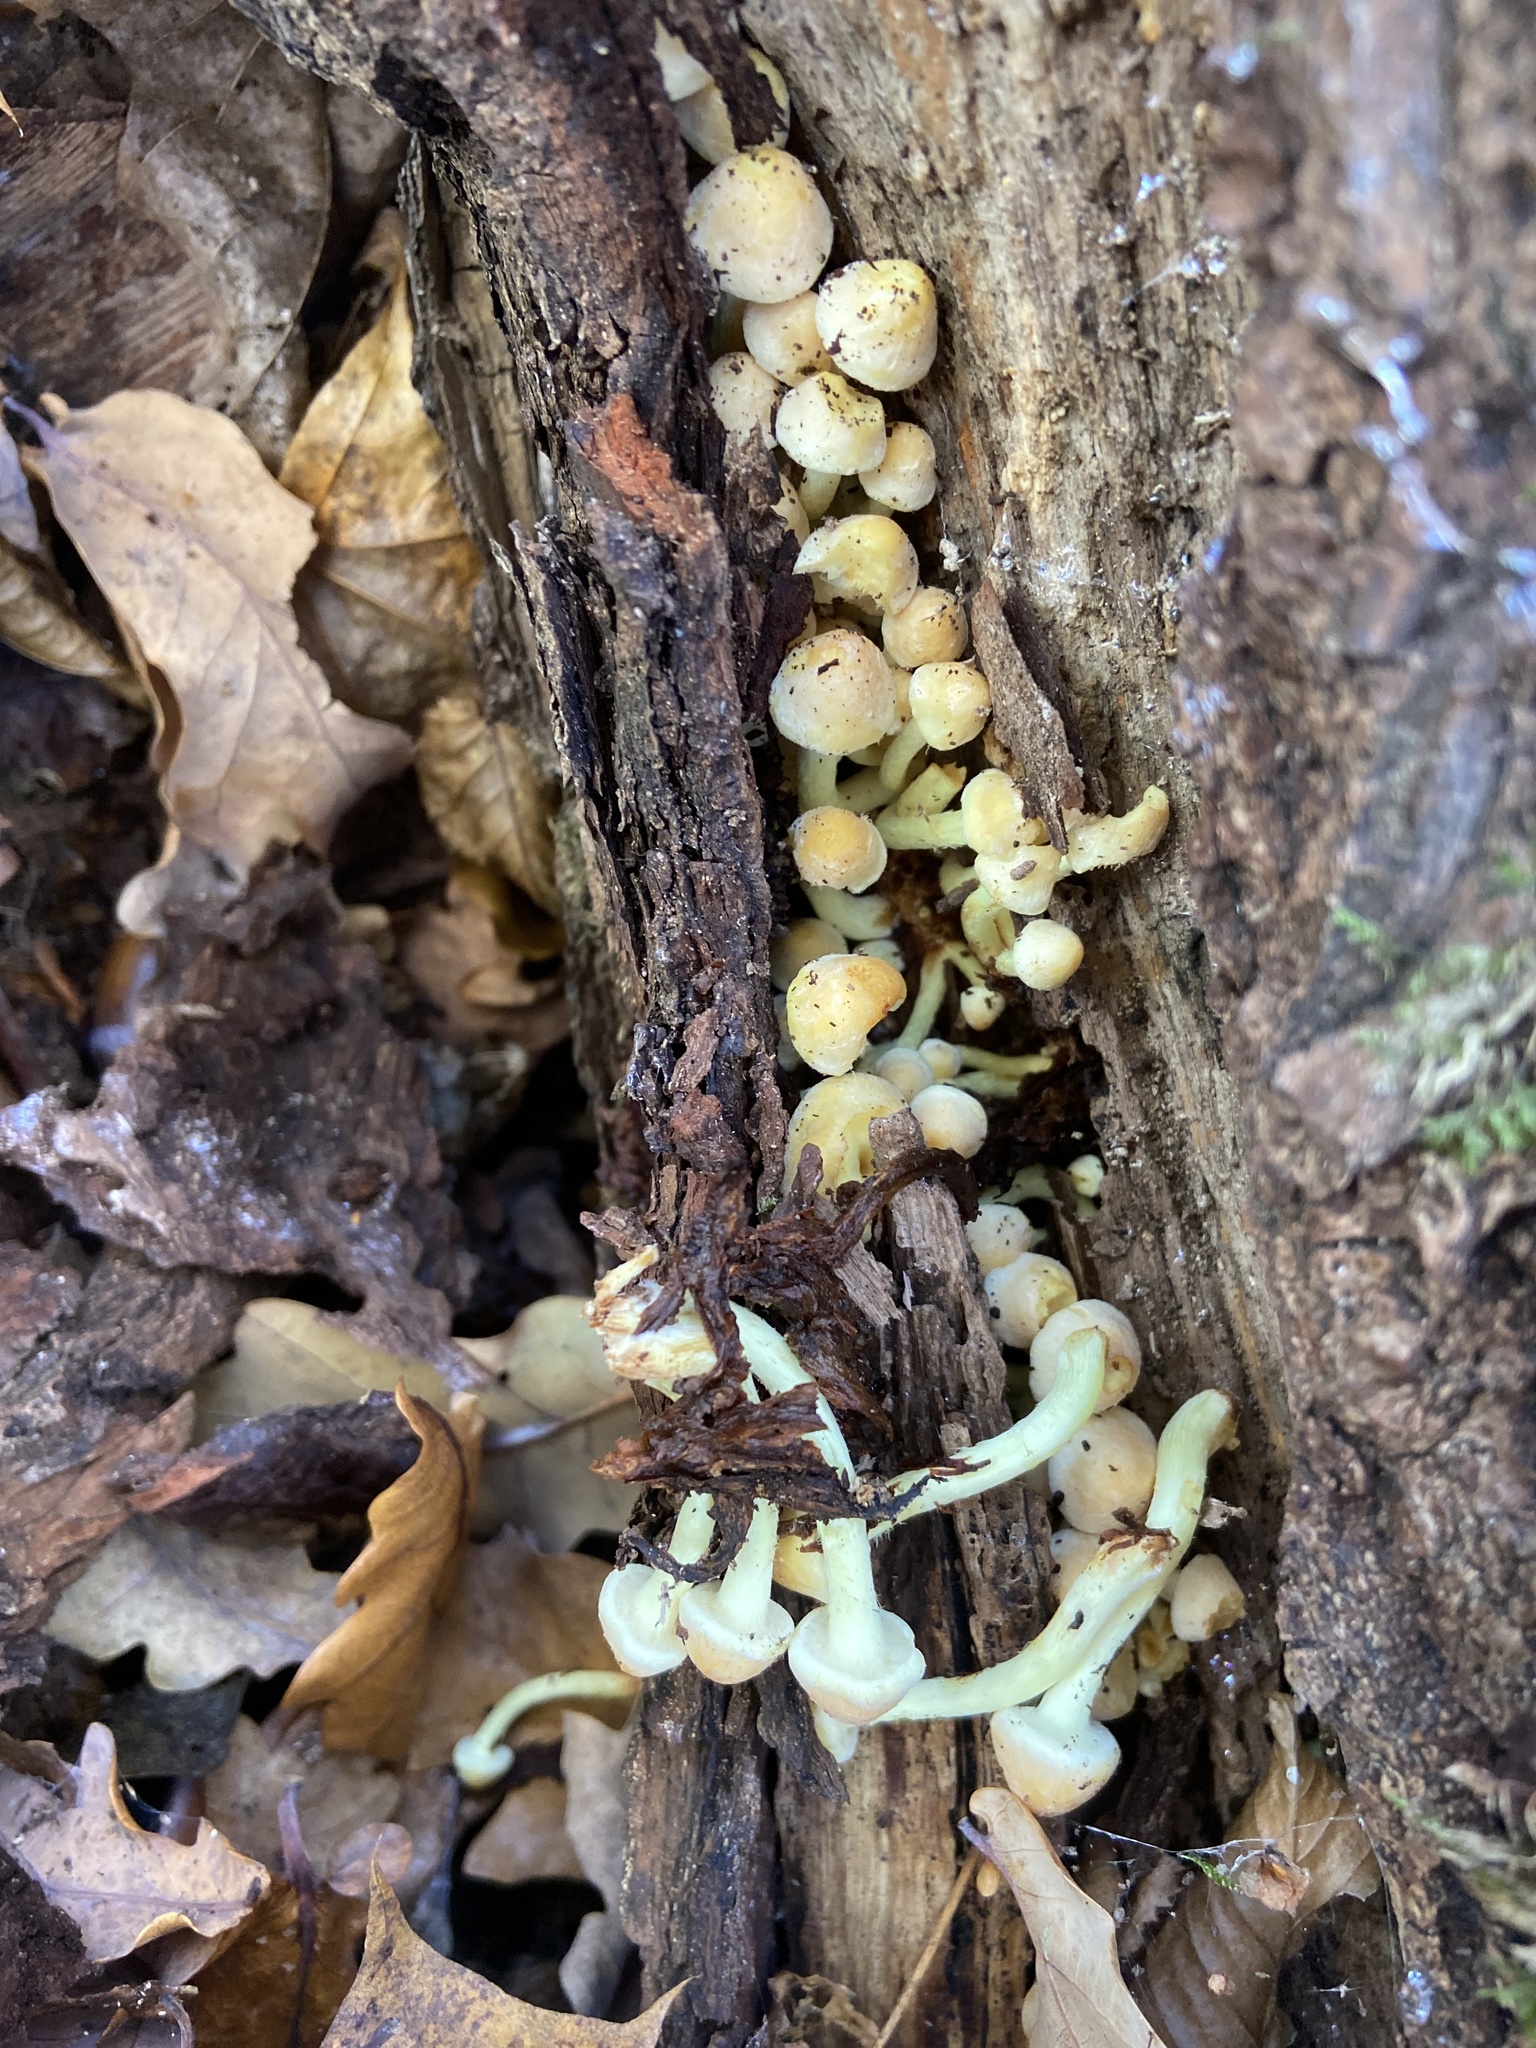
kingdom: Fungi
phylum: Basidiomycota
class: Agaricomycetes
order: Agaricales
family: Strophariaceae
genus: Hypholoma
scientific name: Hypholoma fasciculare
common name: Sulphur tuft
